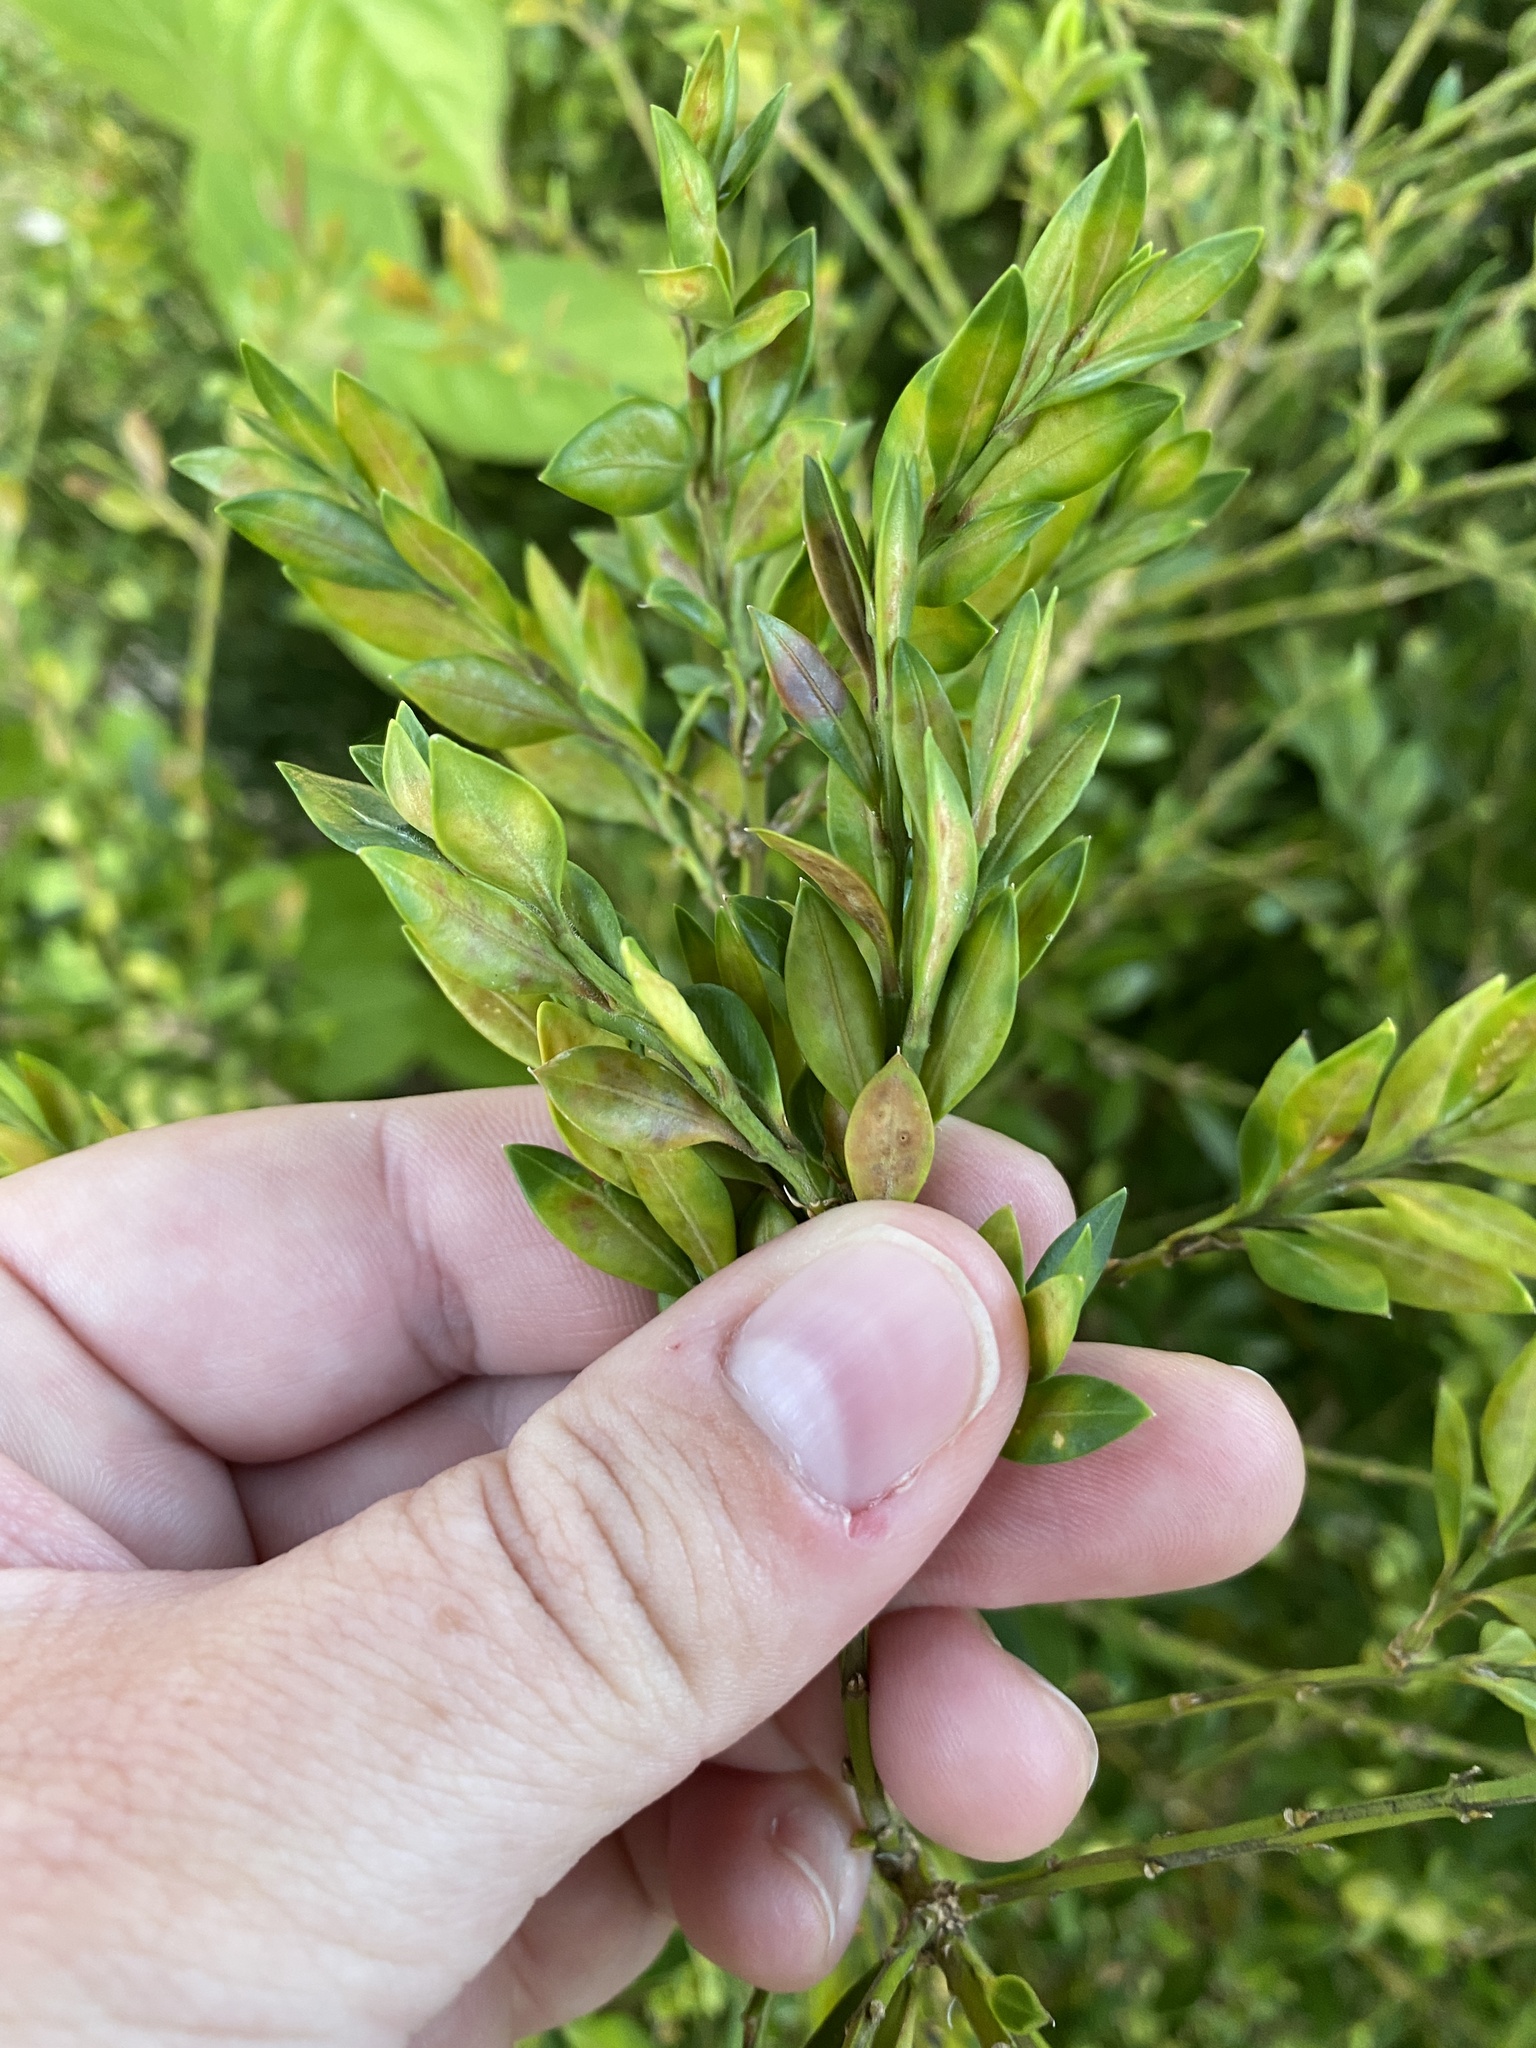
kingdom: Animalia
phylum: Arthropoda
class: Insecta
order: Diptera
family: Cecidomyiidae
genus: Monarthropalpus
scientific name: Monarthropalpus flavus
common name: Boxwood leafminer
